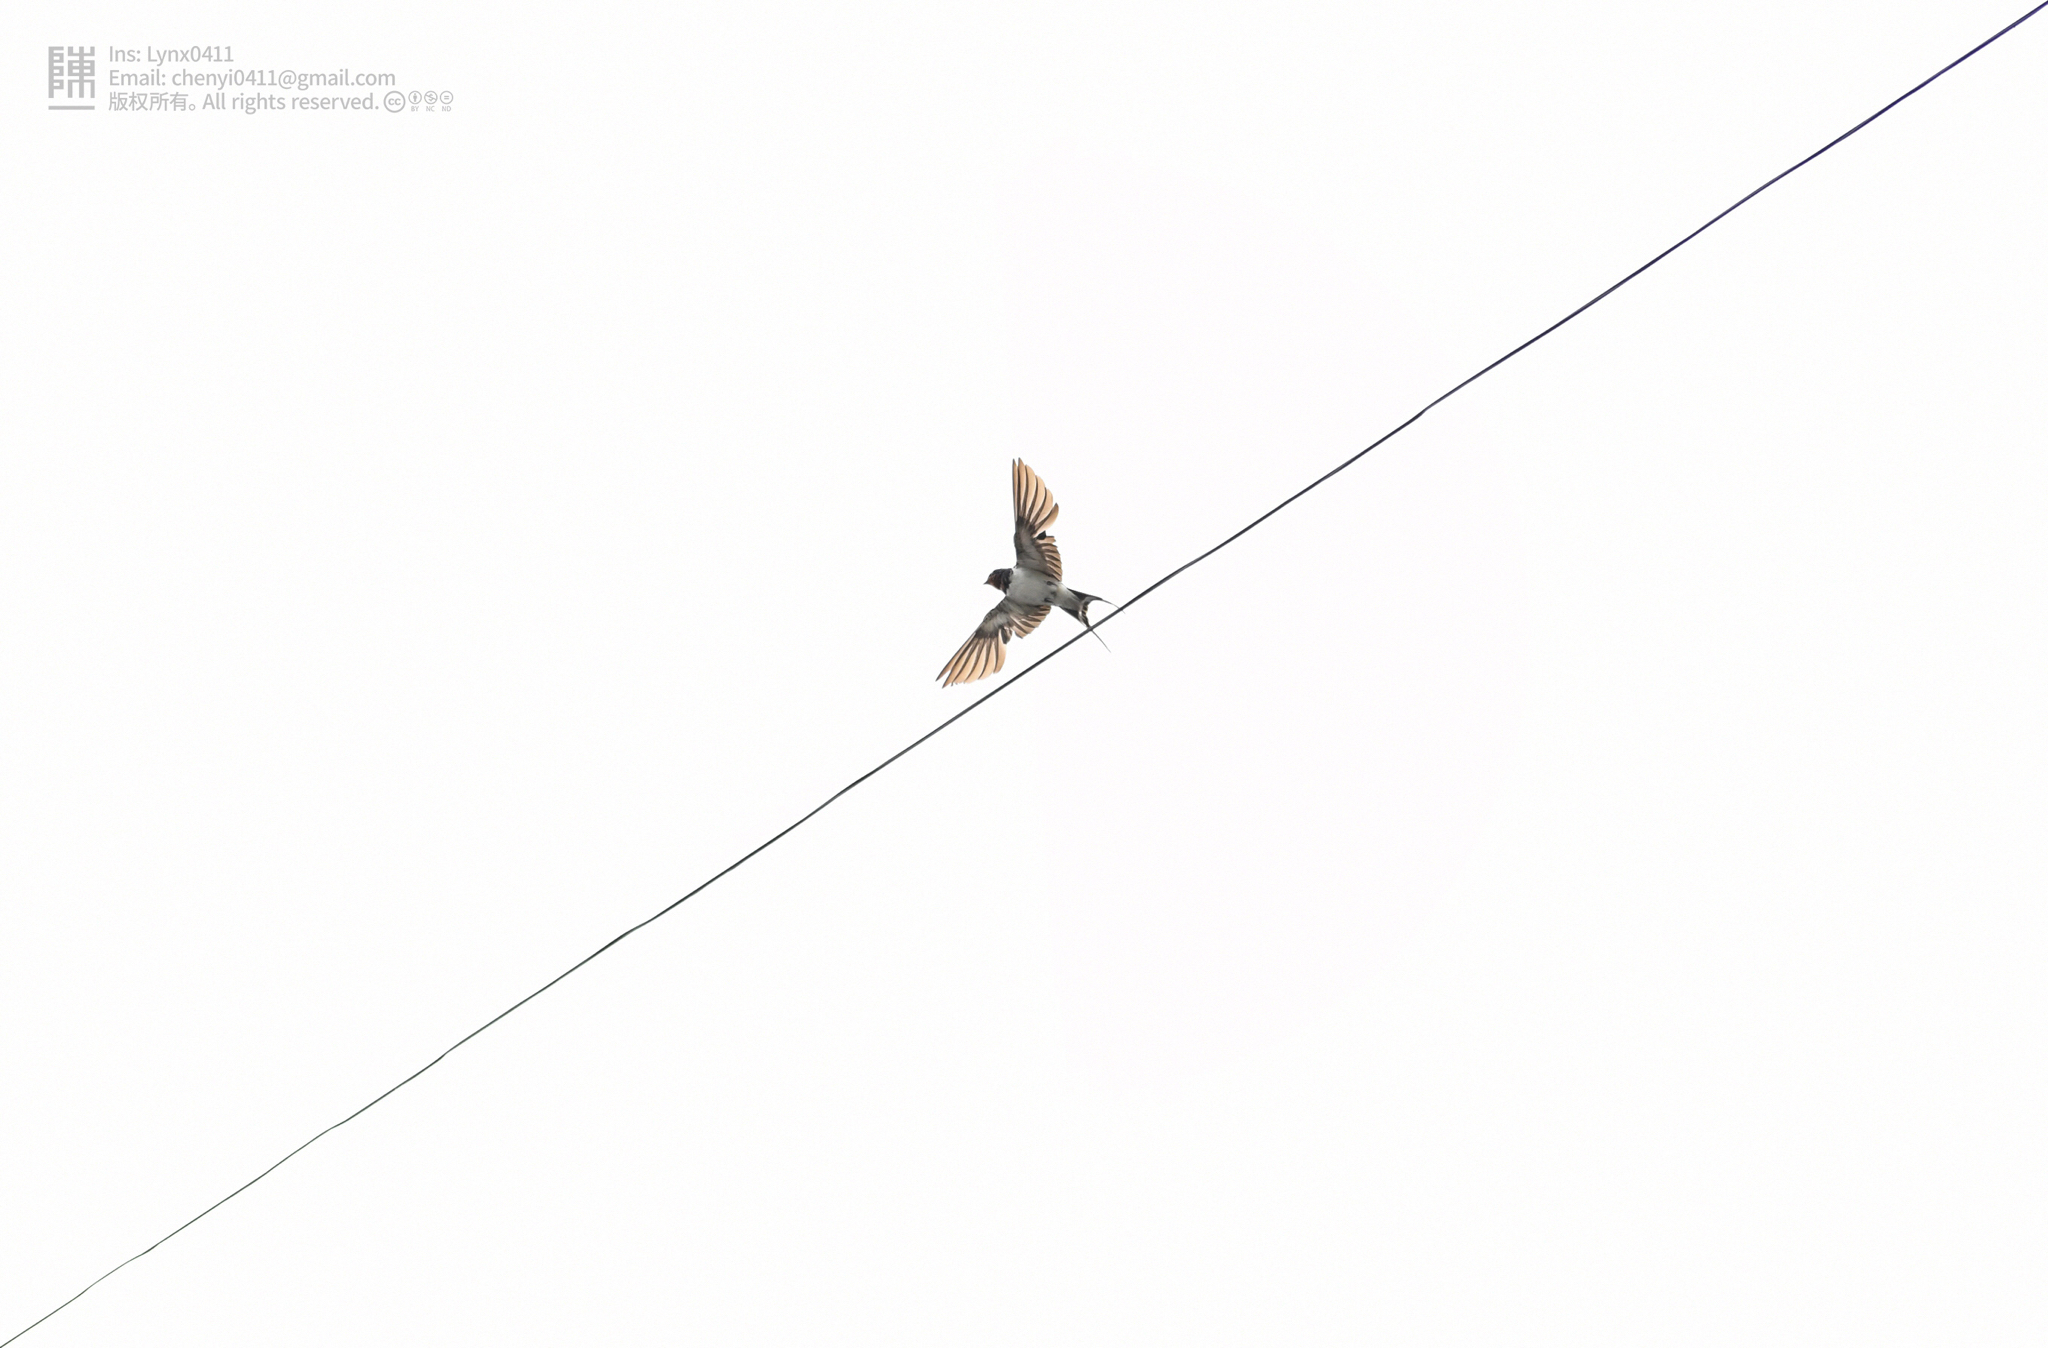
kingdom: Animalia
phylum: Chordata
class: Aves
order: Passeriformes
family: Hirundinidae
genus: Hirundo
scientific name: Hirundo rustica
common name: Barn swallow
